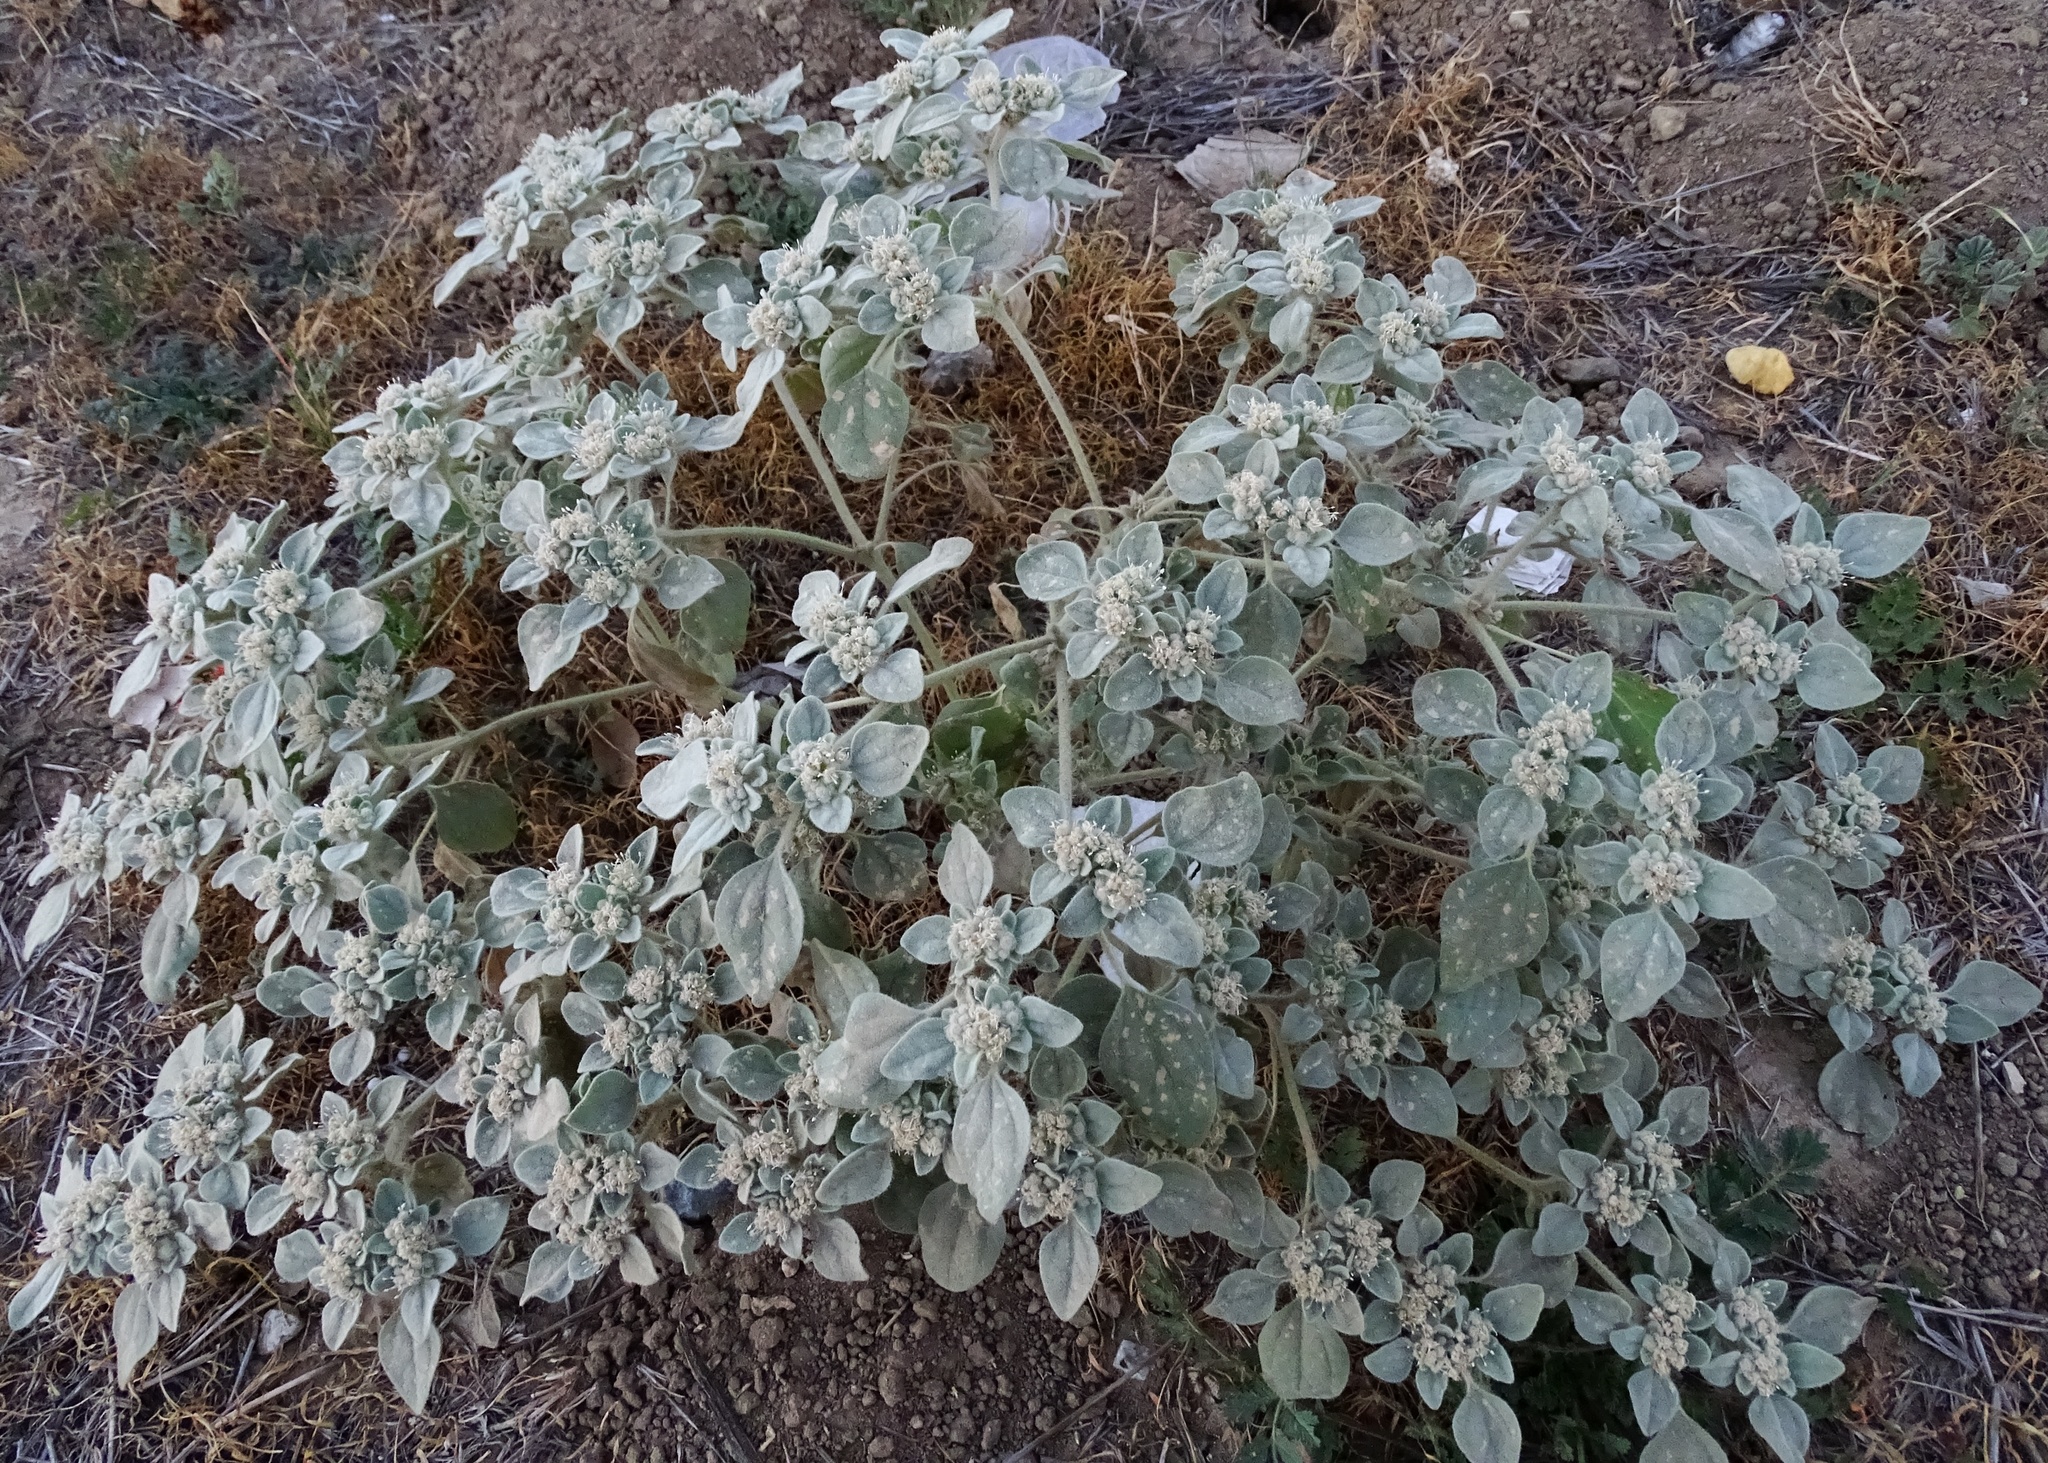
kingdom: Plantae
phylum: Tracheophyta
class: Magnoliopsida
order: Malpighiales
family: Euphorbiaceae
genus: Croton
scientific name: Croton setiger
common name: Dove weed
